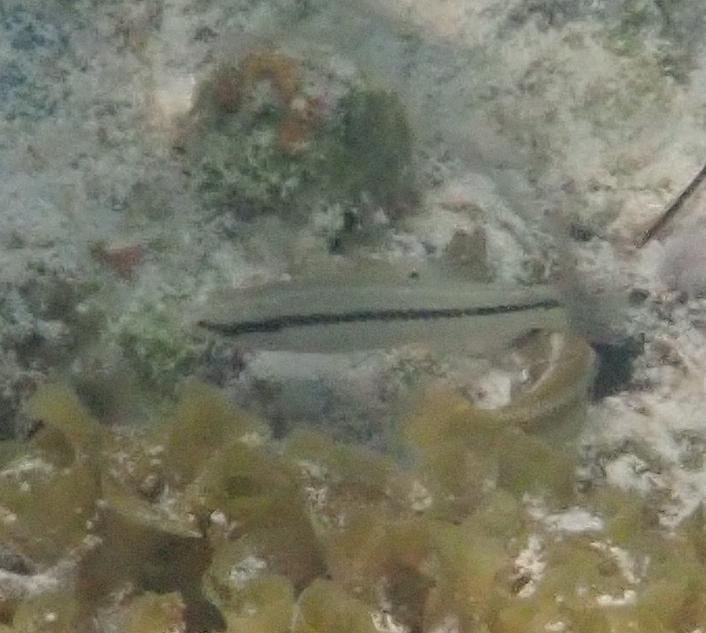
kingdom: Animalia
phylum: Chordata
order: Perciformes
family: Labridae
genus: Halichoeres
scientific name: Halichoeres bivittatus
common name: Slippery dick
